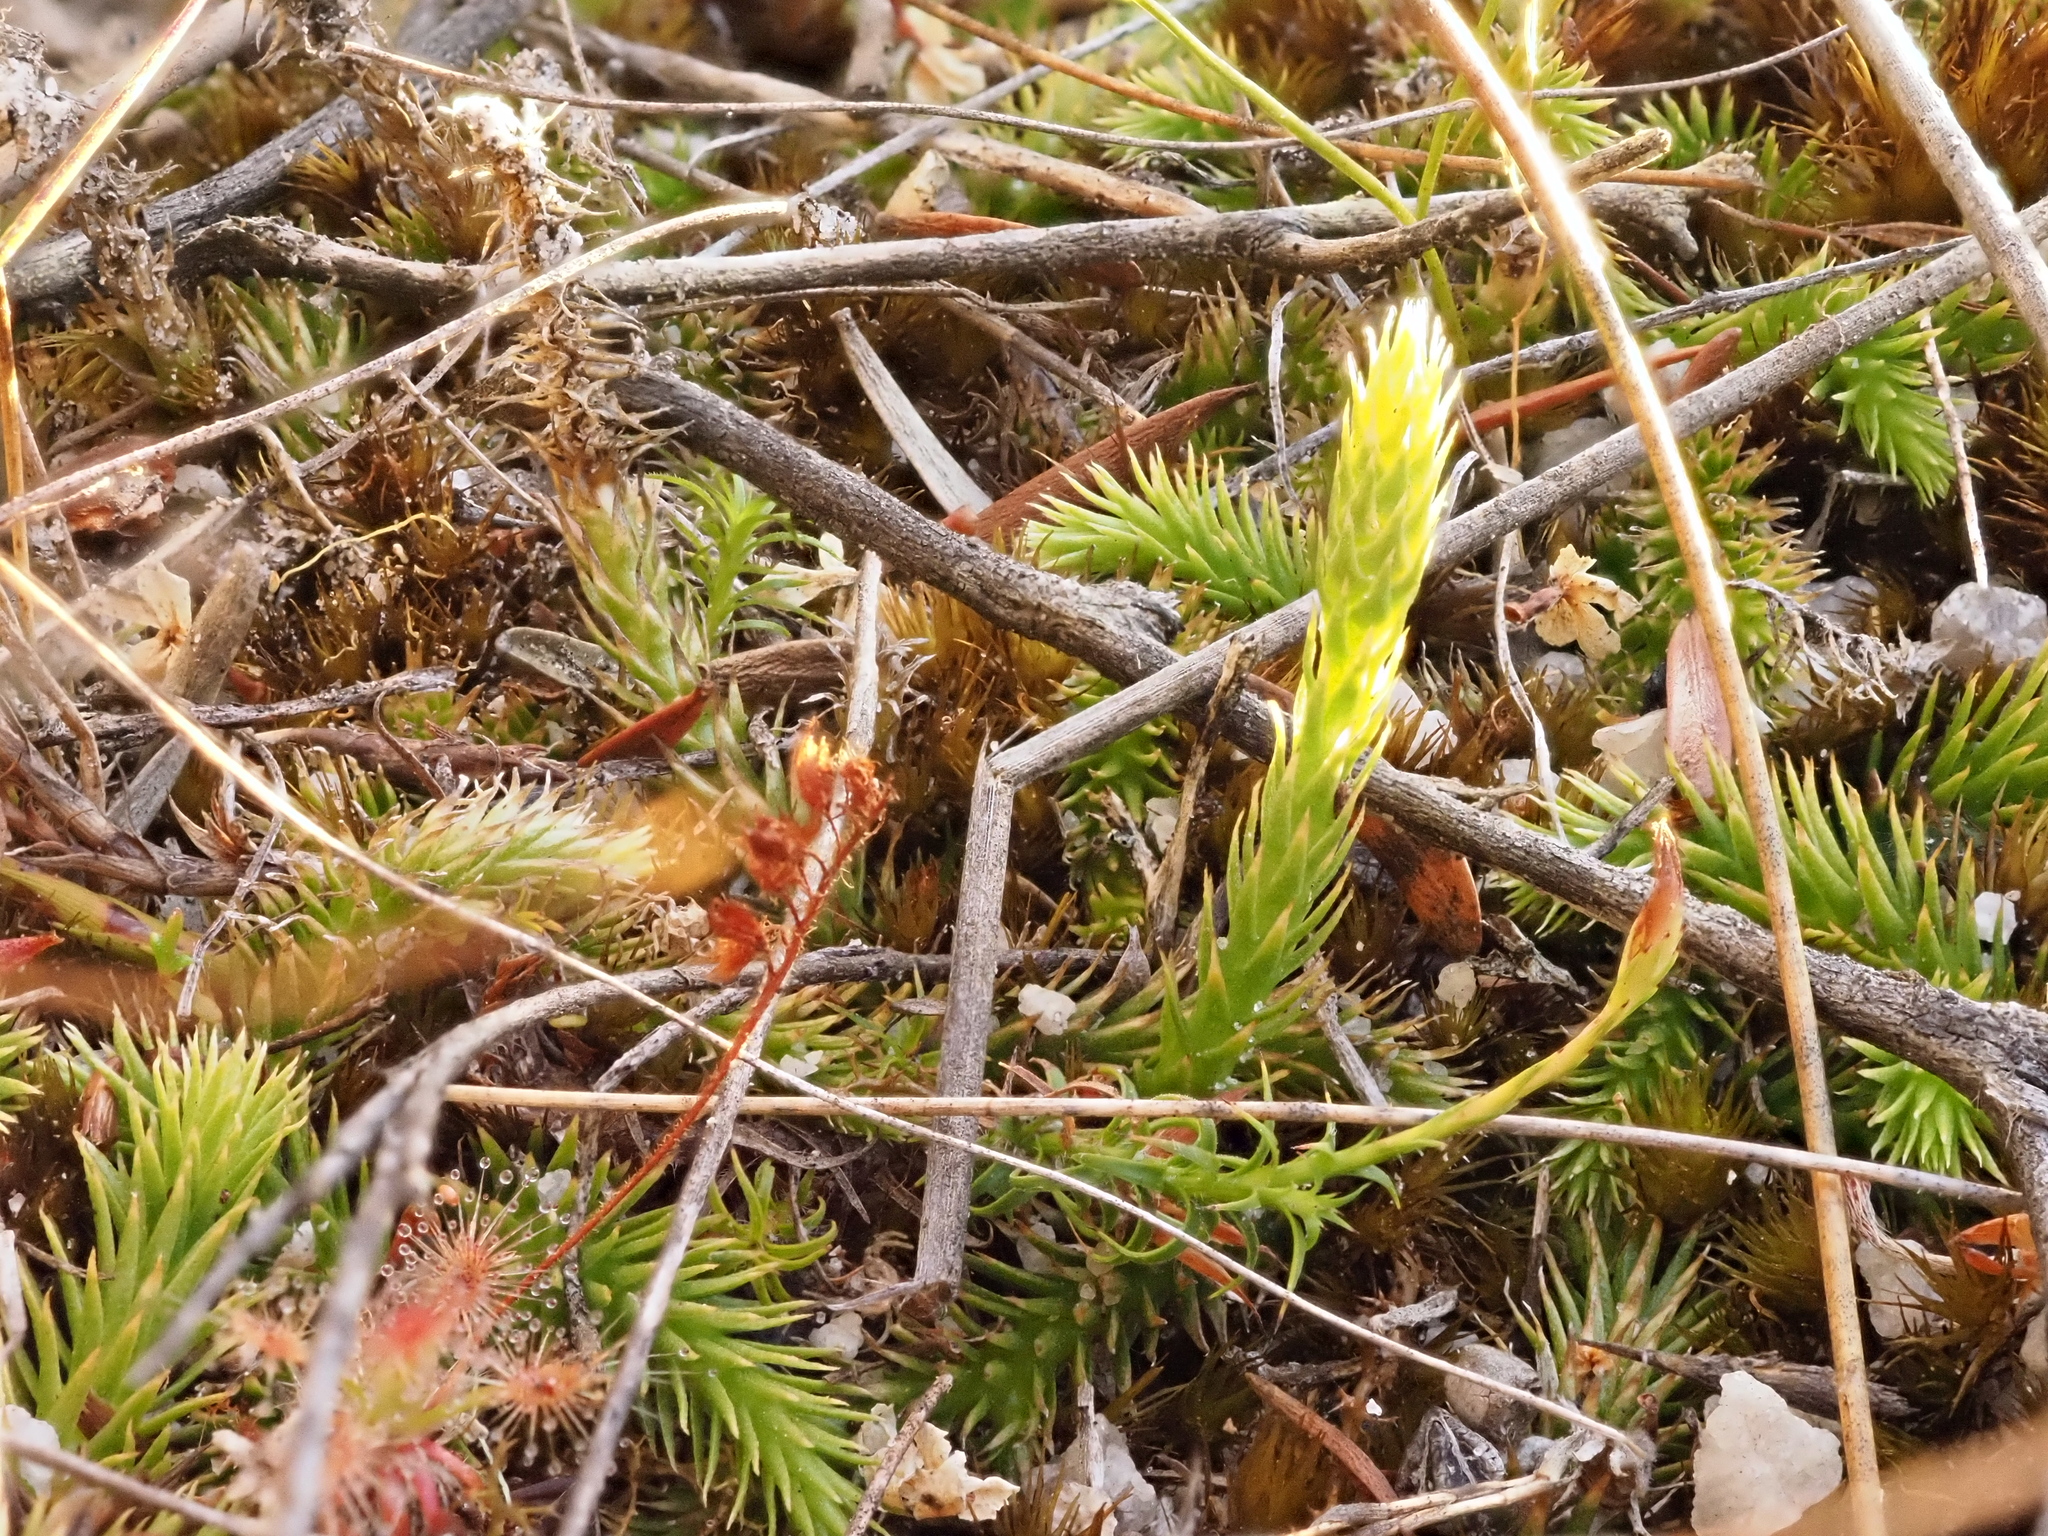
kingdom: Plantae
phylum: Tracheophyta
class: Lycopodiopsida
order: Lycopodiales
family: Lycopodiaceae
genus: Brownseya
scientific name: Brownseya serpentina
